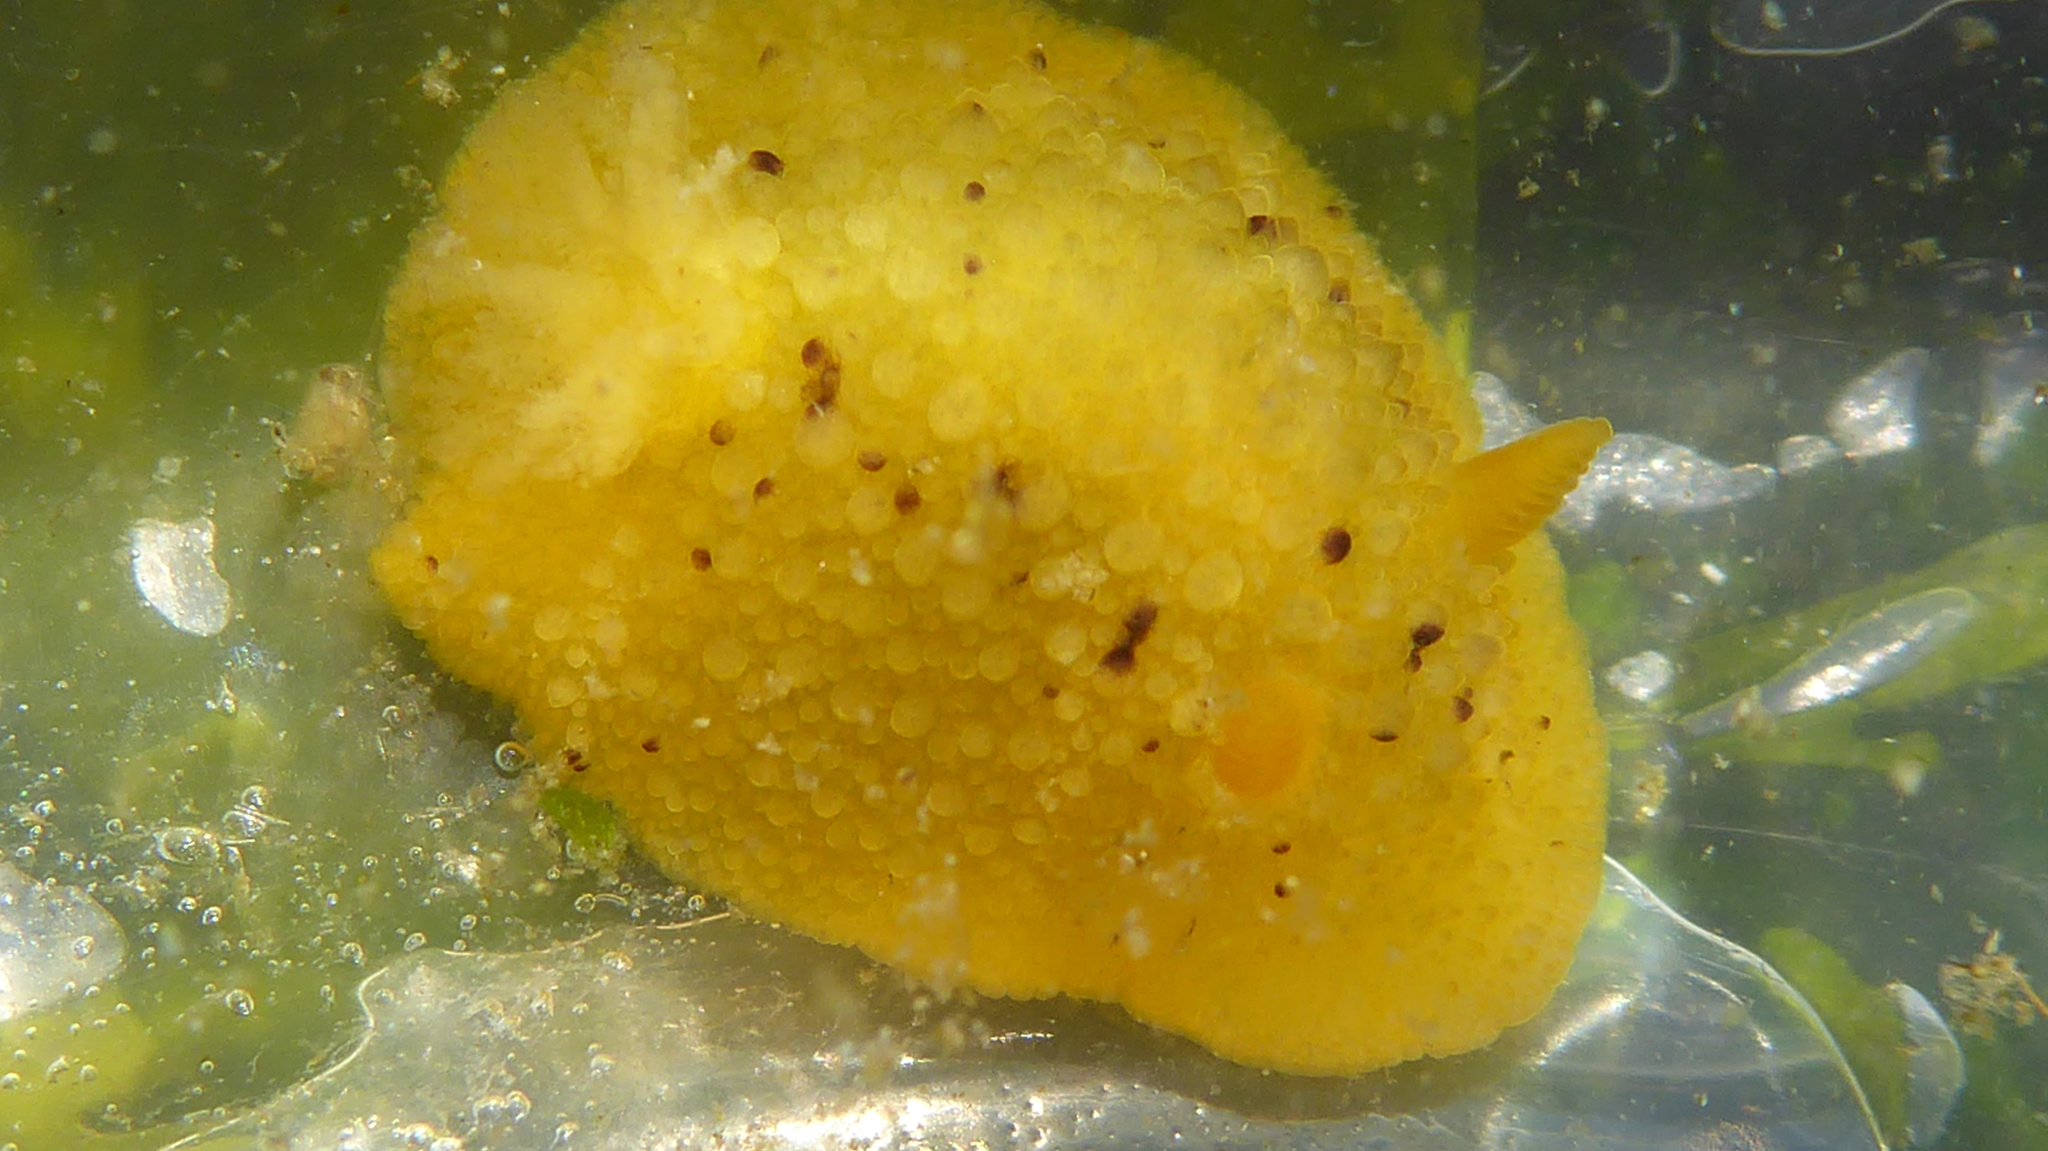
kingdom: Animalia
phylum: Mollusca
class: Gastropoda
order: Nudibranchia
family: Dorididae
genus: Doris
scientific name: Doris montereyensis
